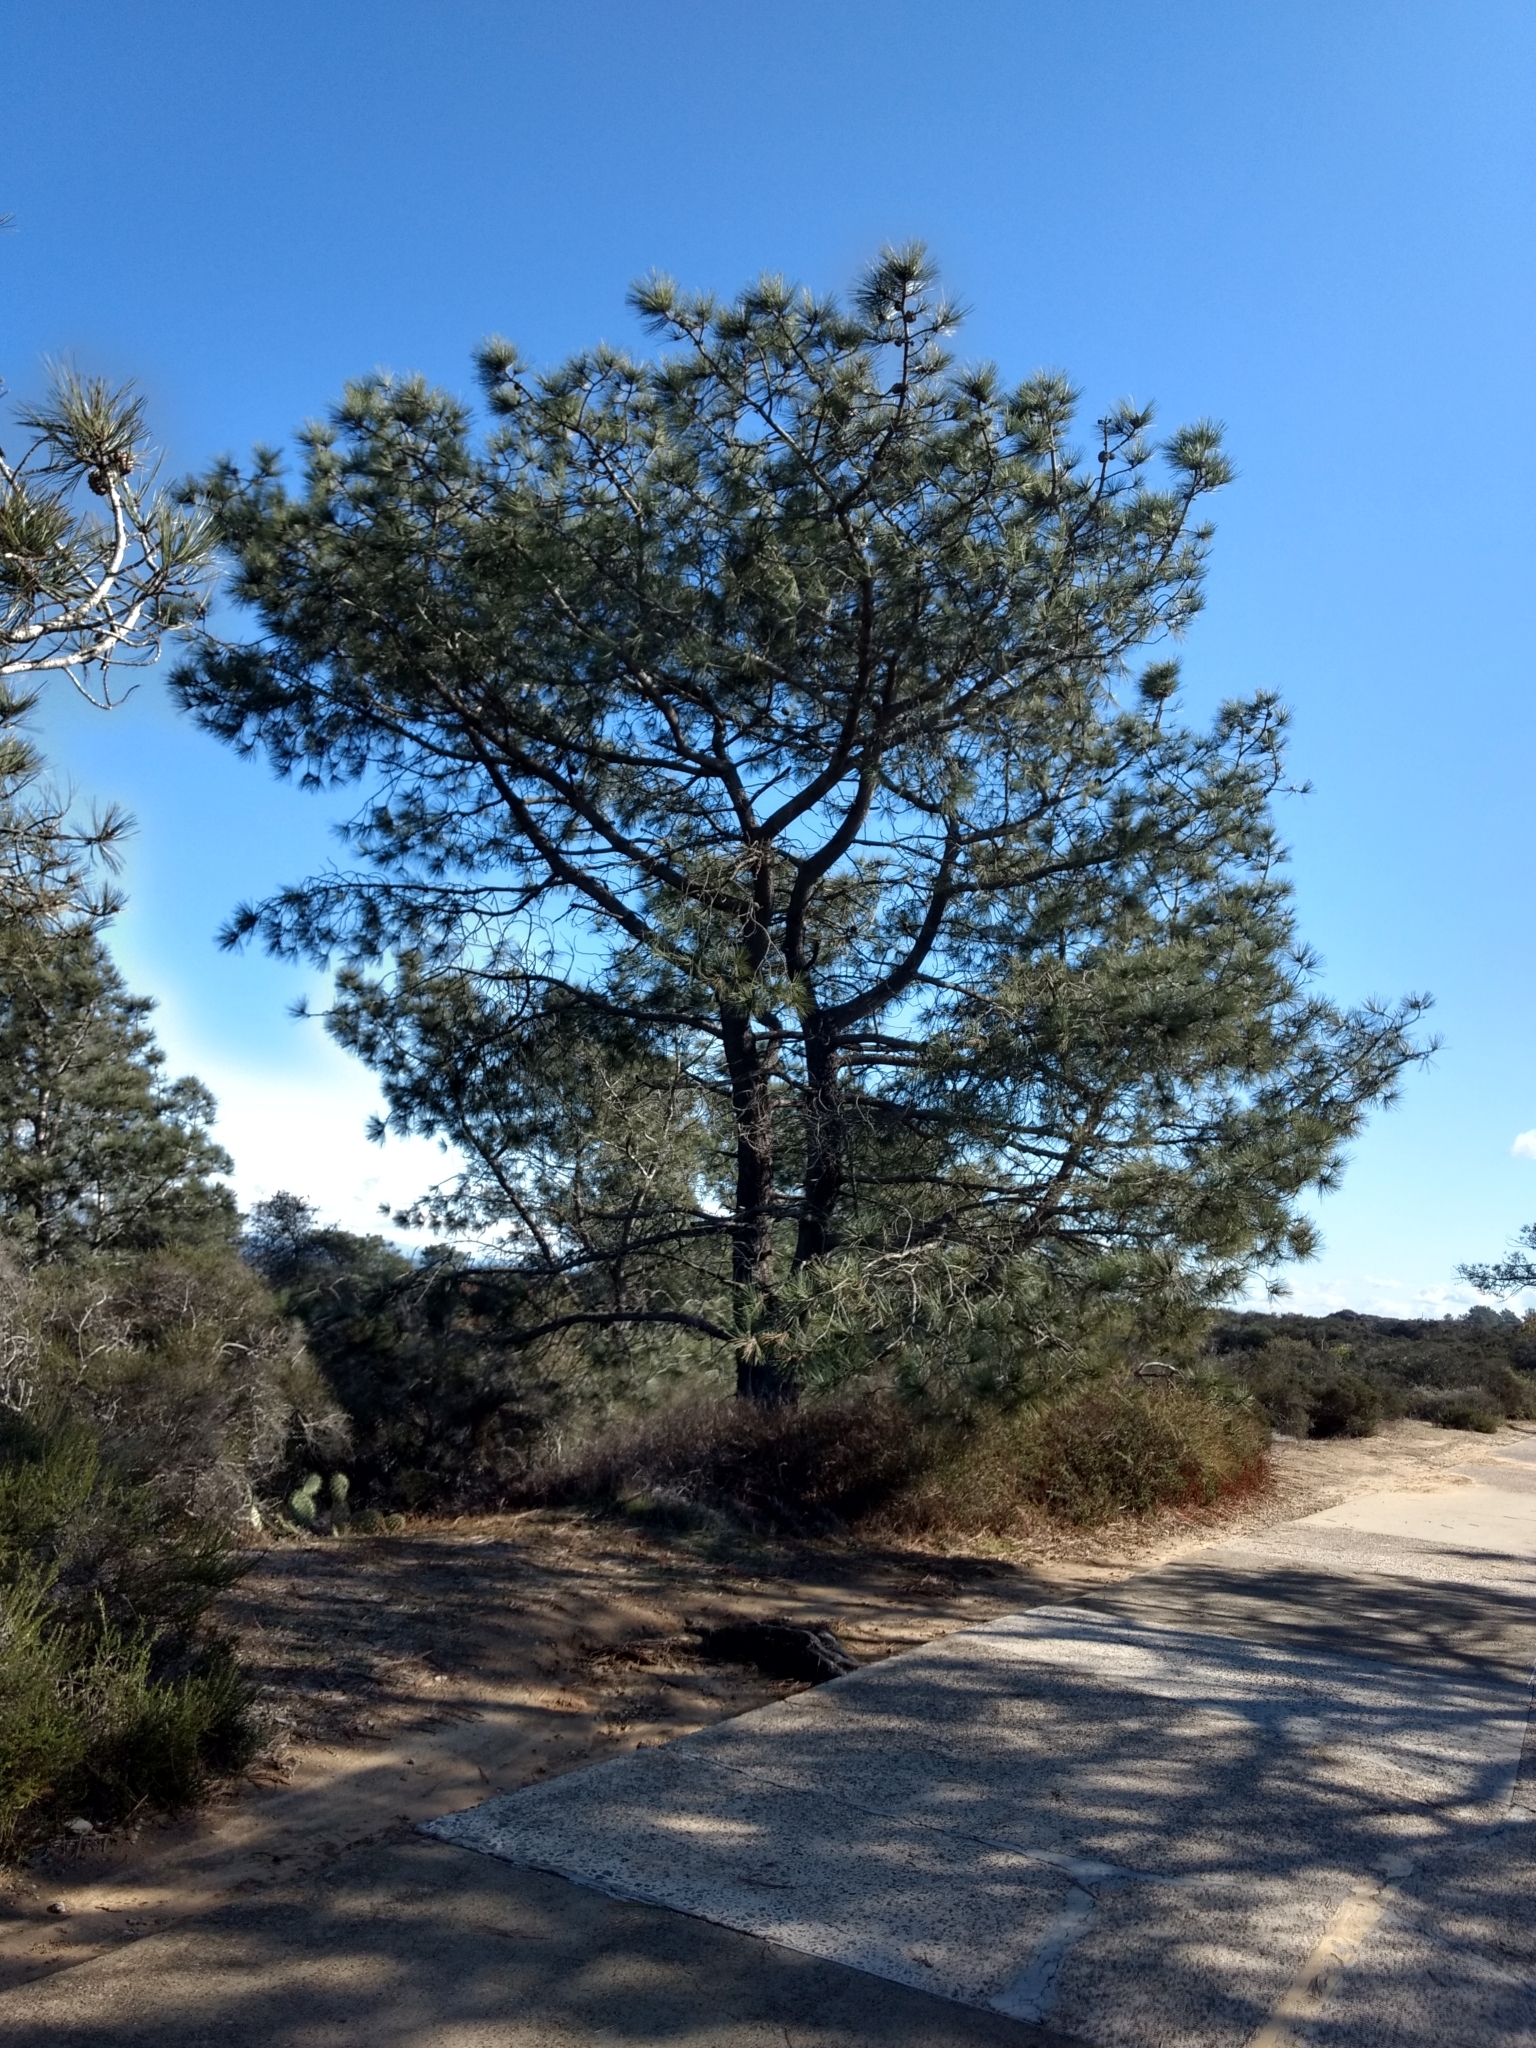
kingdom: Plantae
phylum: Tracheophyta
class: Pinopsida
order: Pinales
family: Pinaceae
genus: Pinus
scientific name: Pinus torreyana
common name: Torrey pine
